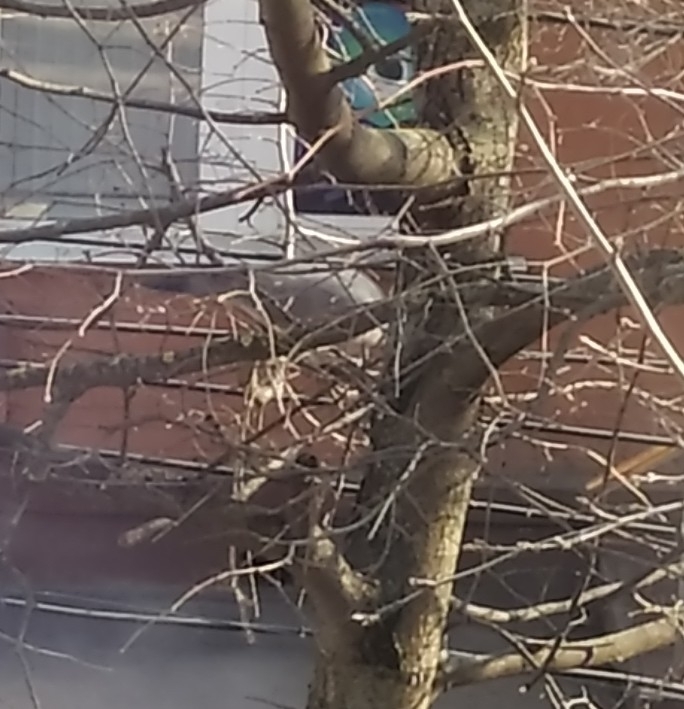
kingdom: Animalia
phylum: Chordata
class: Aves
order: Columbiformes
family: Columbidae
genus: Columba
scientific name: Columba palumbus
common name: Common wood pigeon
